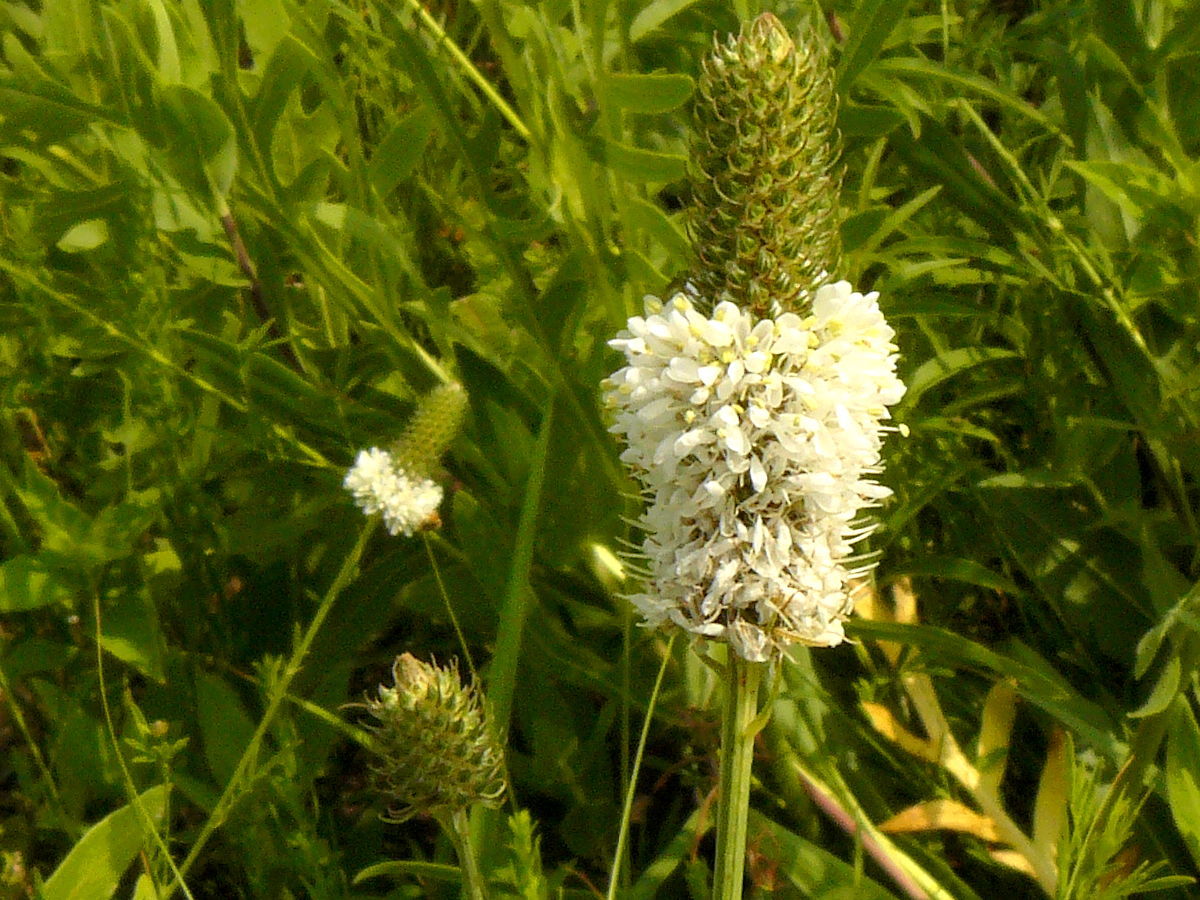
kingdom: Plantae
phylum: Tracheophyta
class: Magnoliopsida
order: Fabales
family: Fabaceae
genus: Dalea
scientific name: Dalea candida
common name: White prairie-clover
